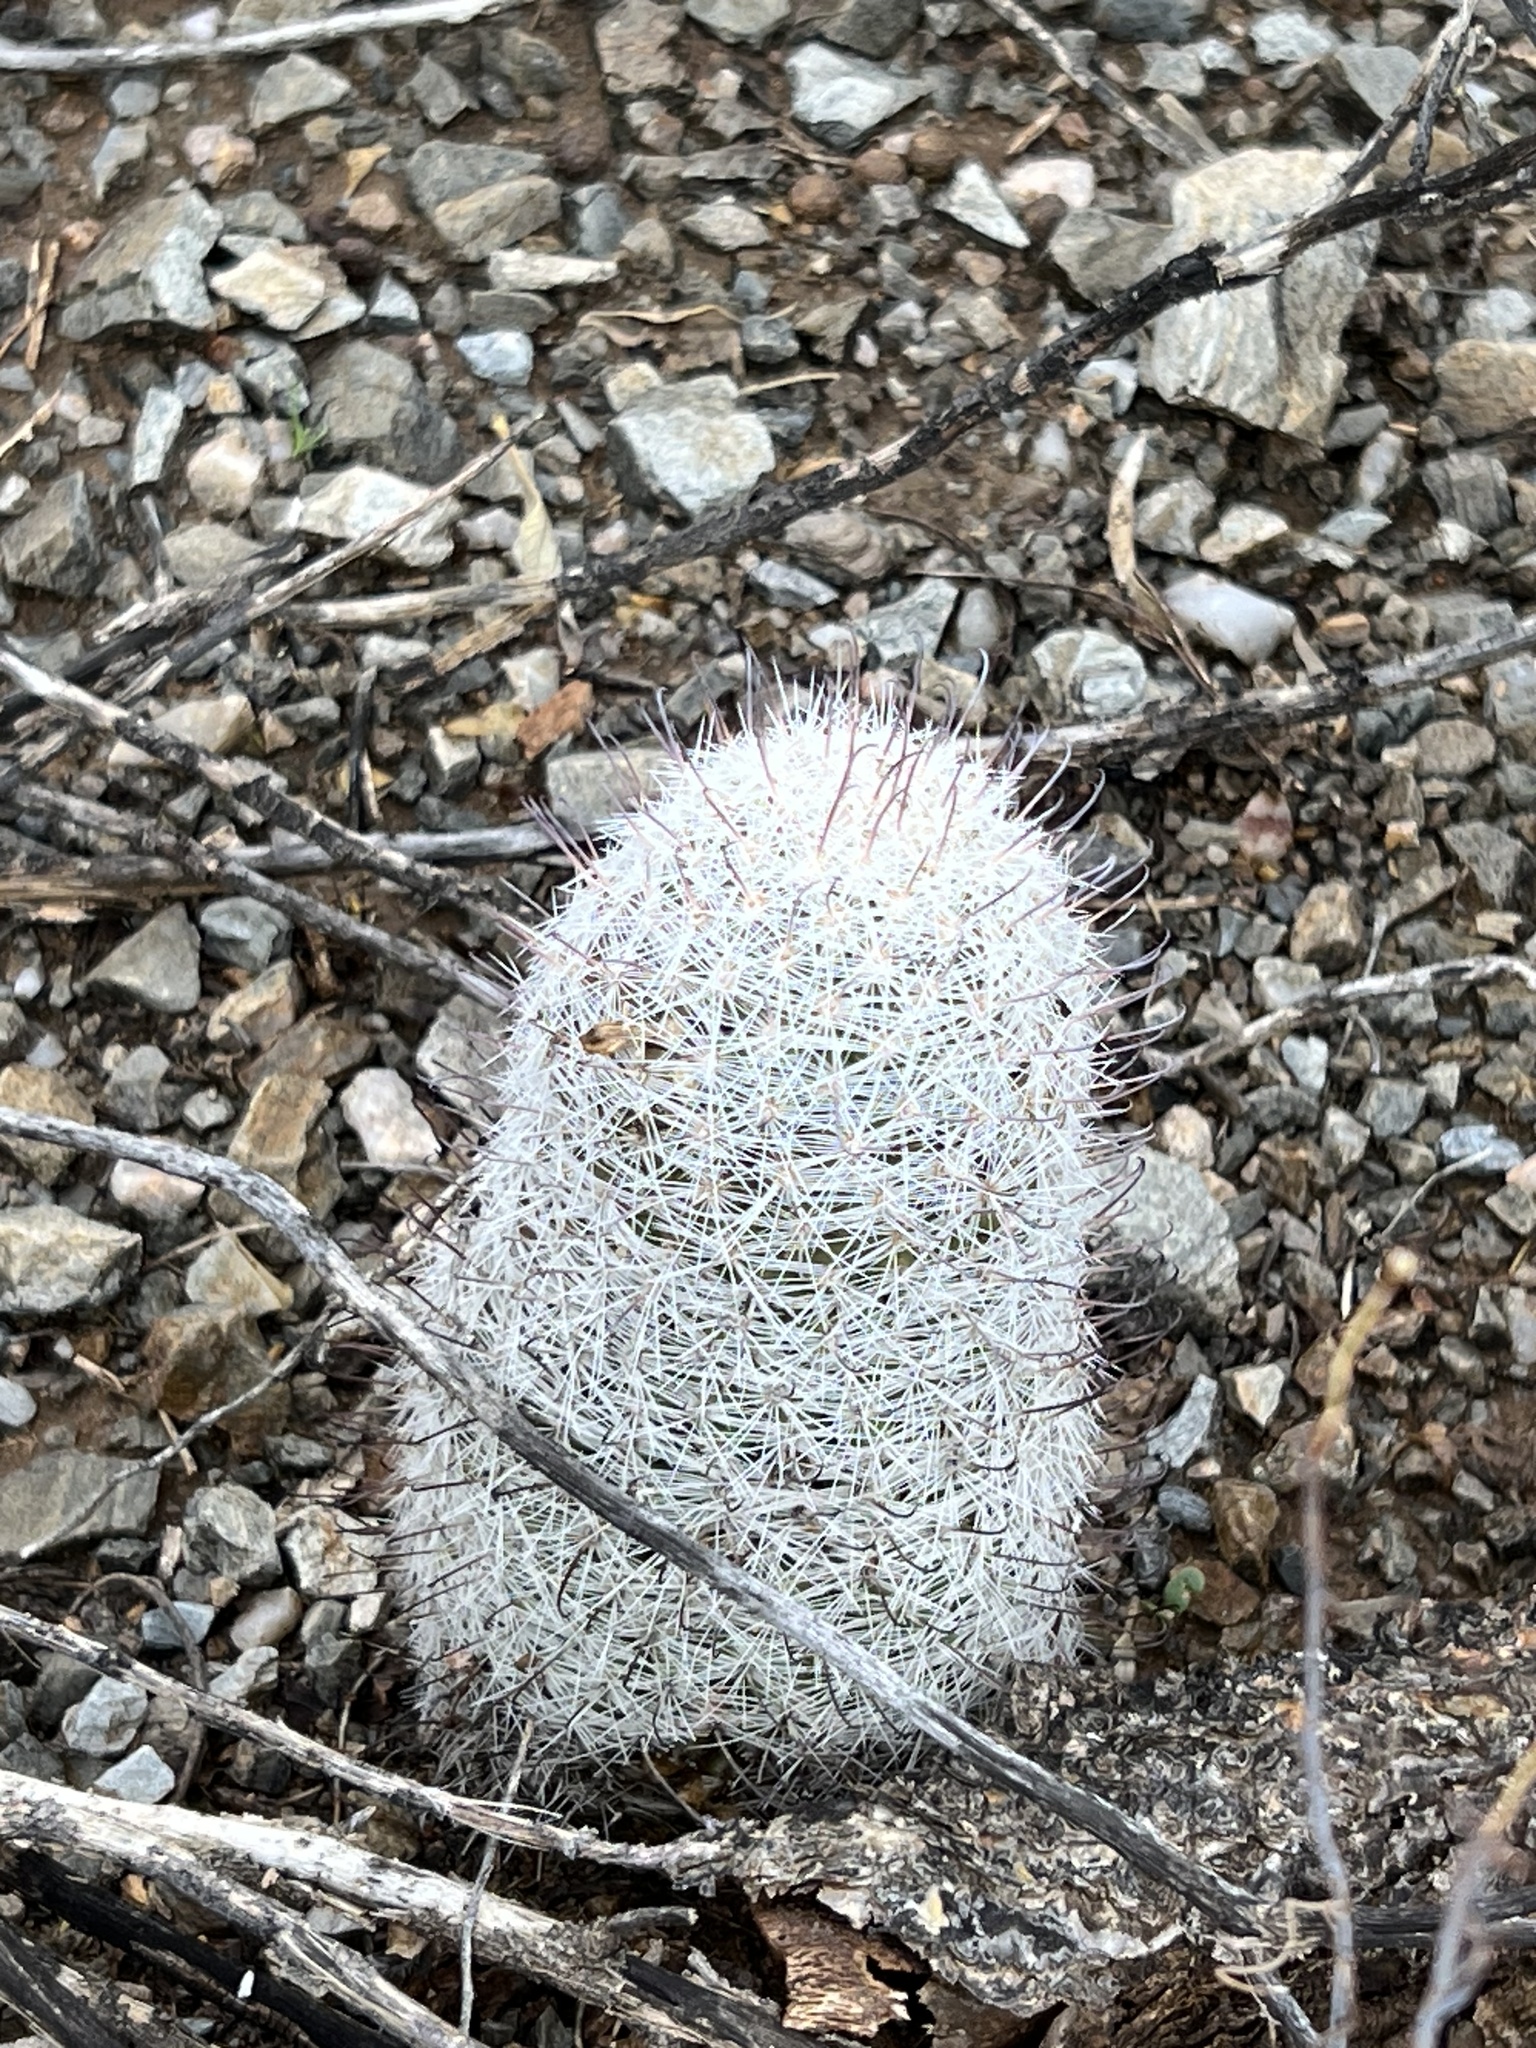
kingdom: Plantae
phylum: Tracheophyta
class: Magnoliopsida
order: Caryophyllales
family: Cactaceae
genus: Cochemiea
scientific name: Cochemiea grahamii
